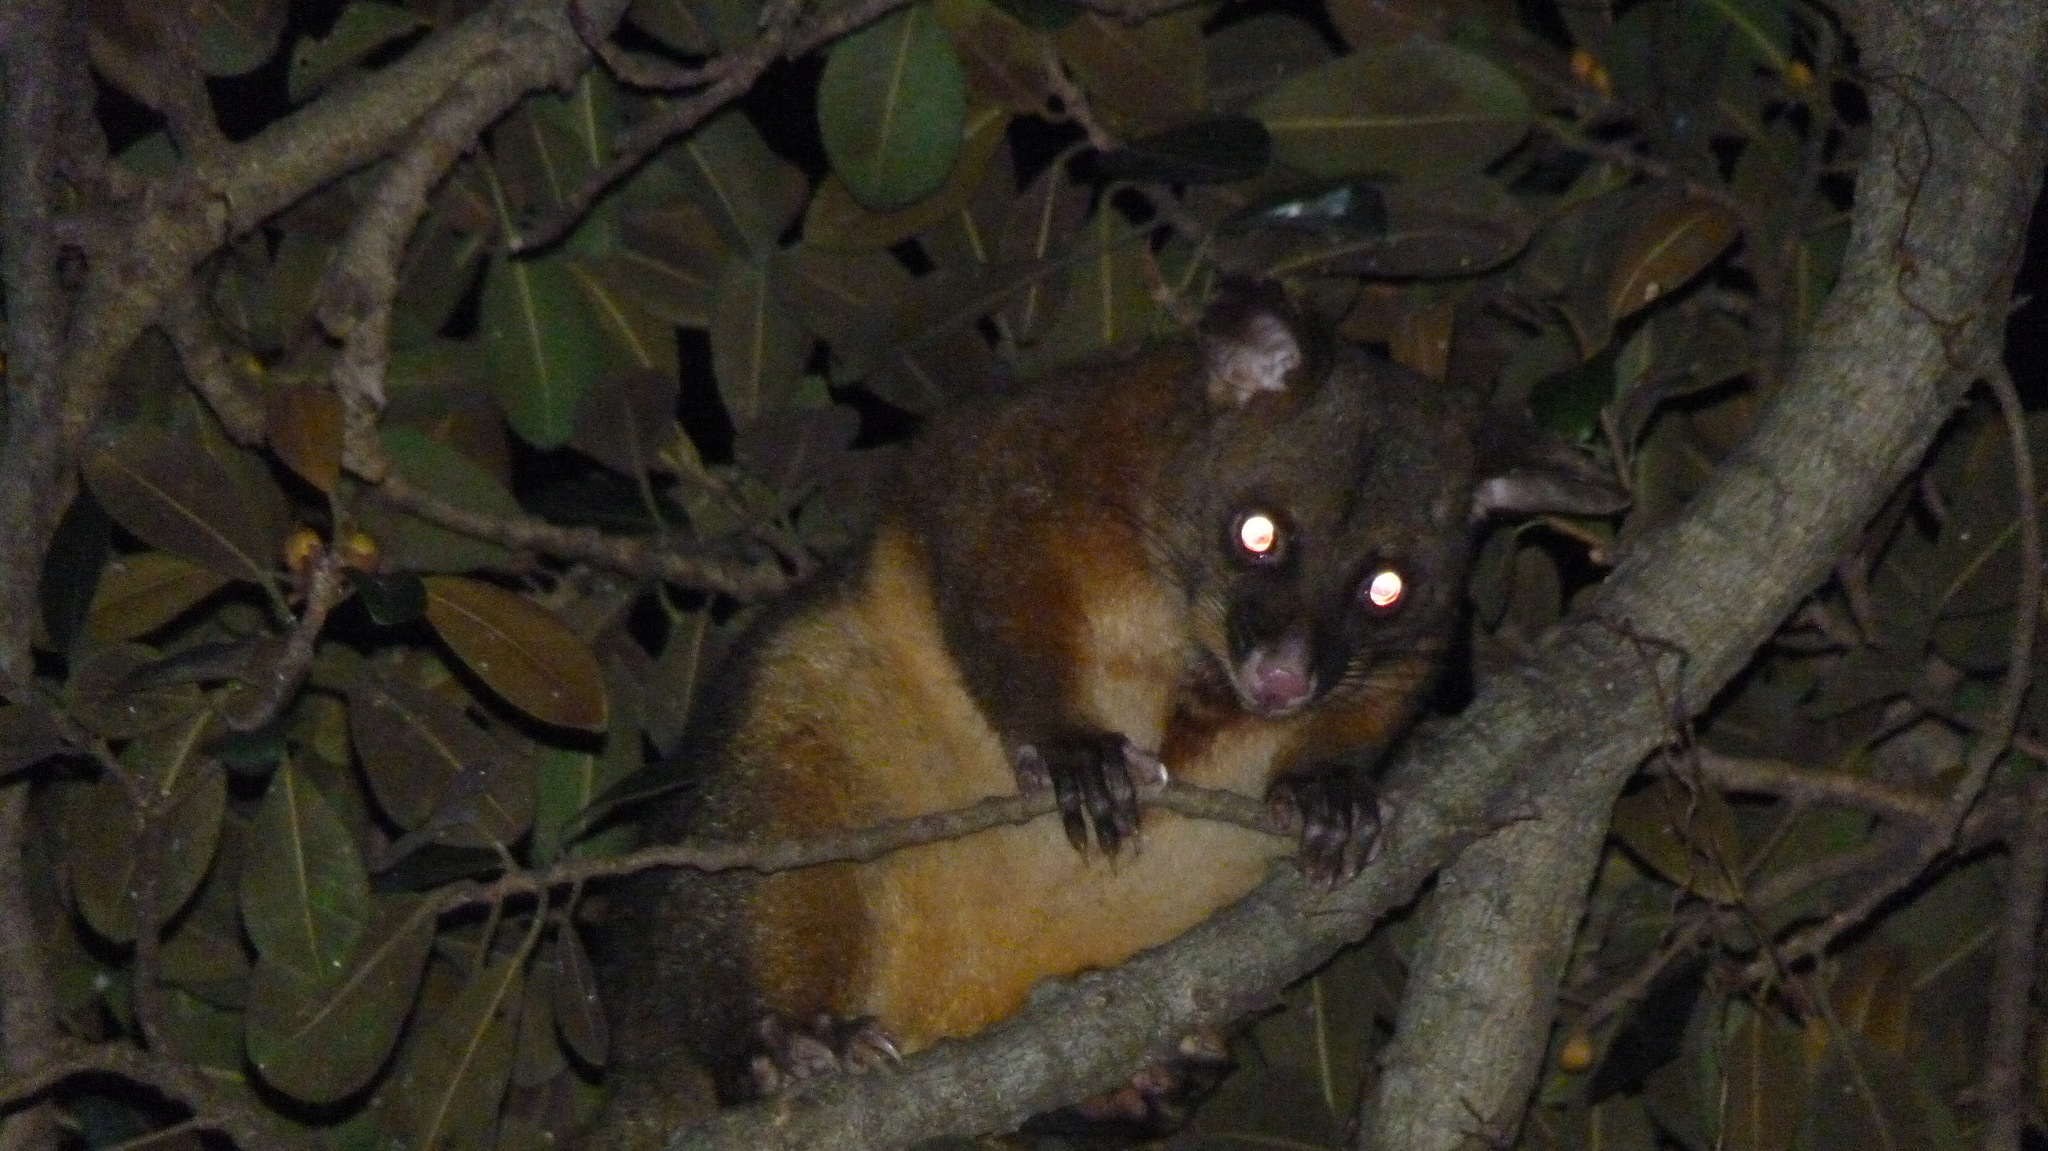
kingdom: Animalia
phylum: Chordata
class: Mammalia
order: Diprotodontia
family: Phalangeridae
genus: Trichosurus
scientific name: Trichosurus vulpecula
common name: Common brushtail
